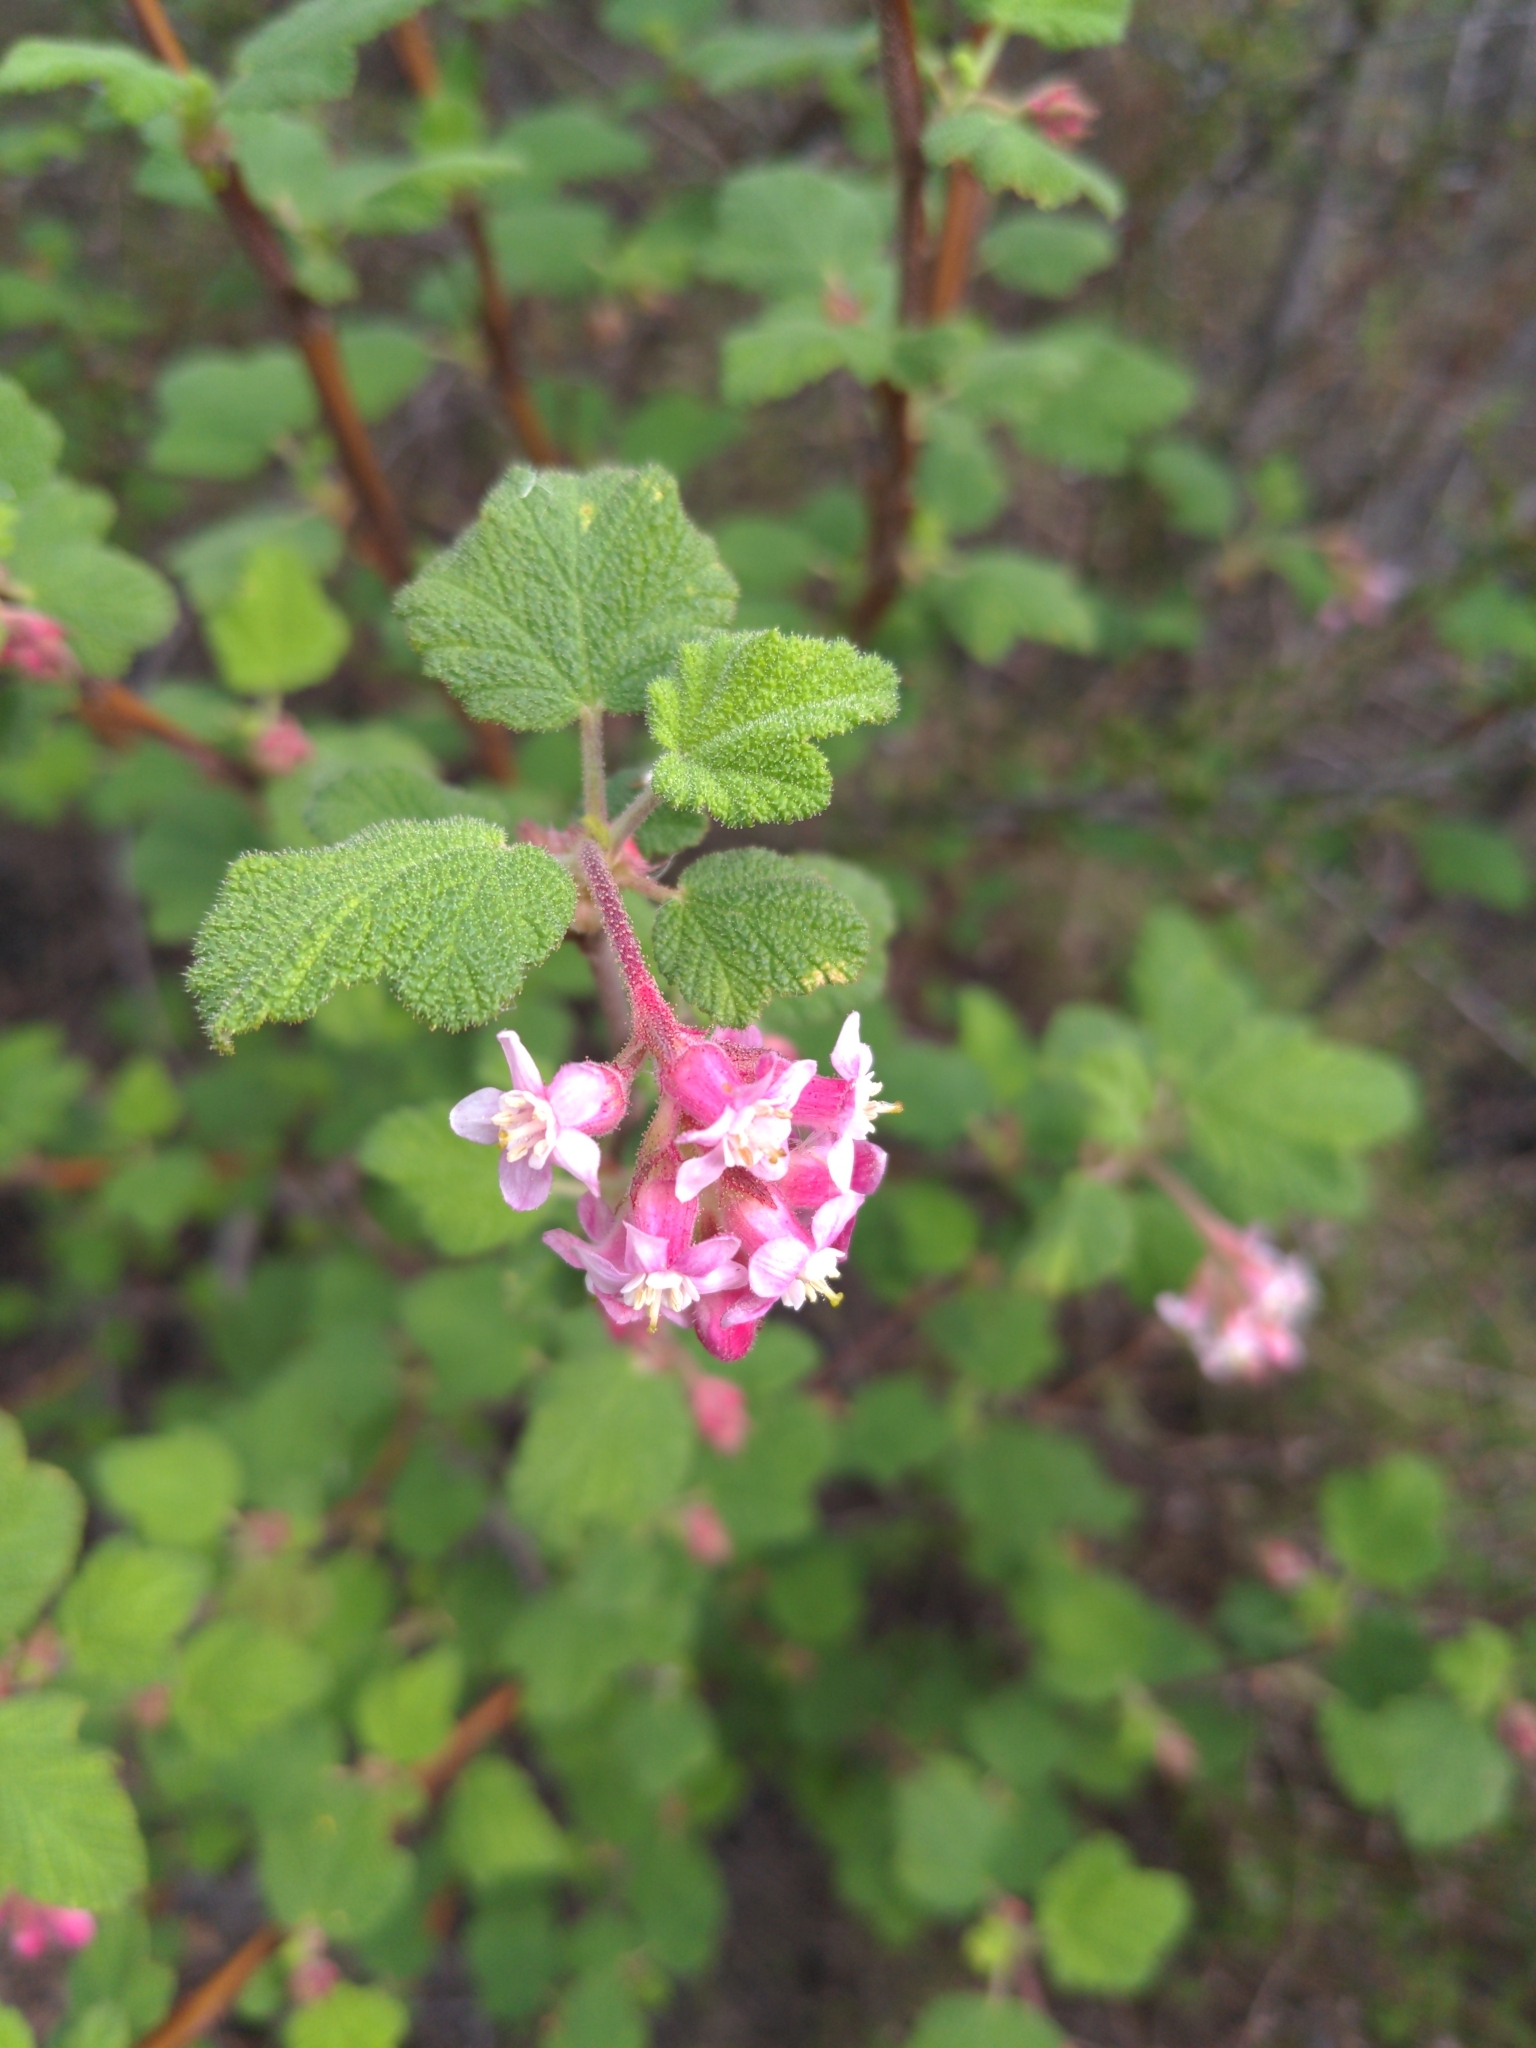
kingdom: Plantae
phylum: Tracheophyta
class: Magnoliopsida
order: Saxifragales
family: Grossulariaceae
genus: Ribes
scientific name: Ribes malvaceum
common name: Chaparral currant
